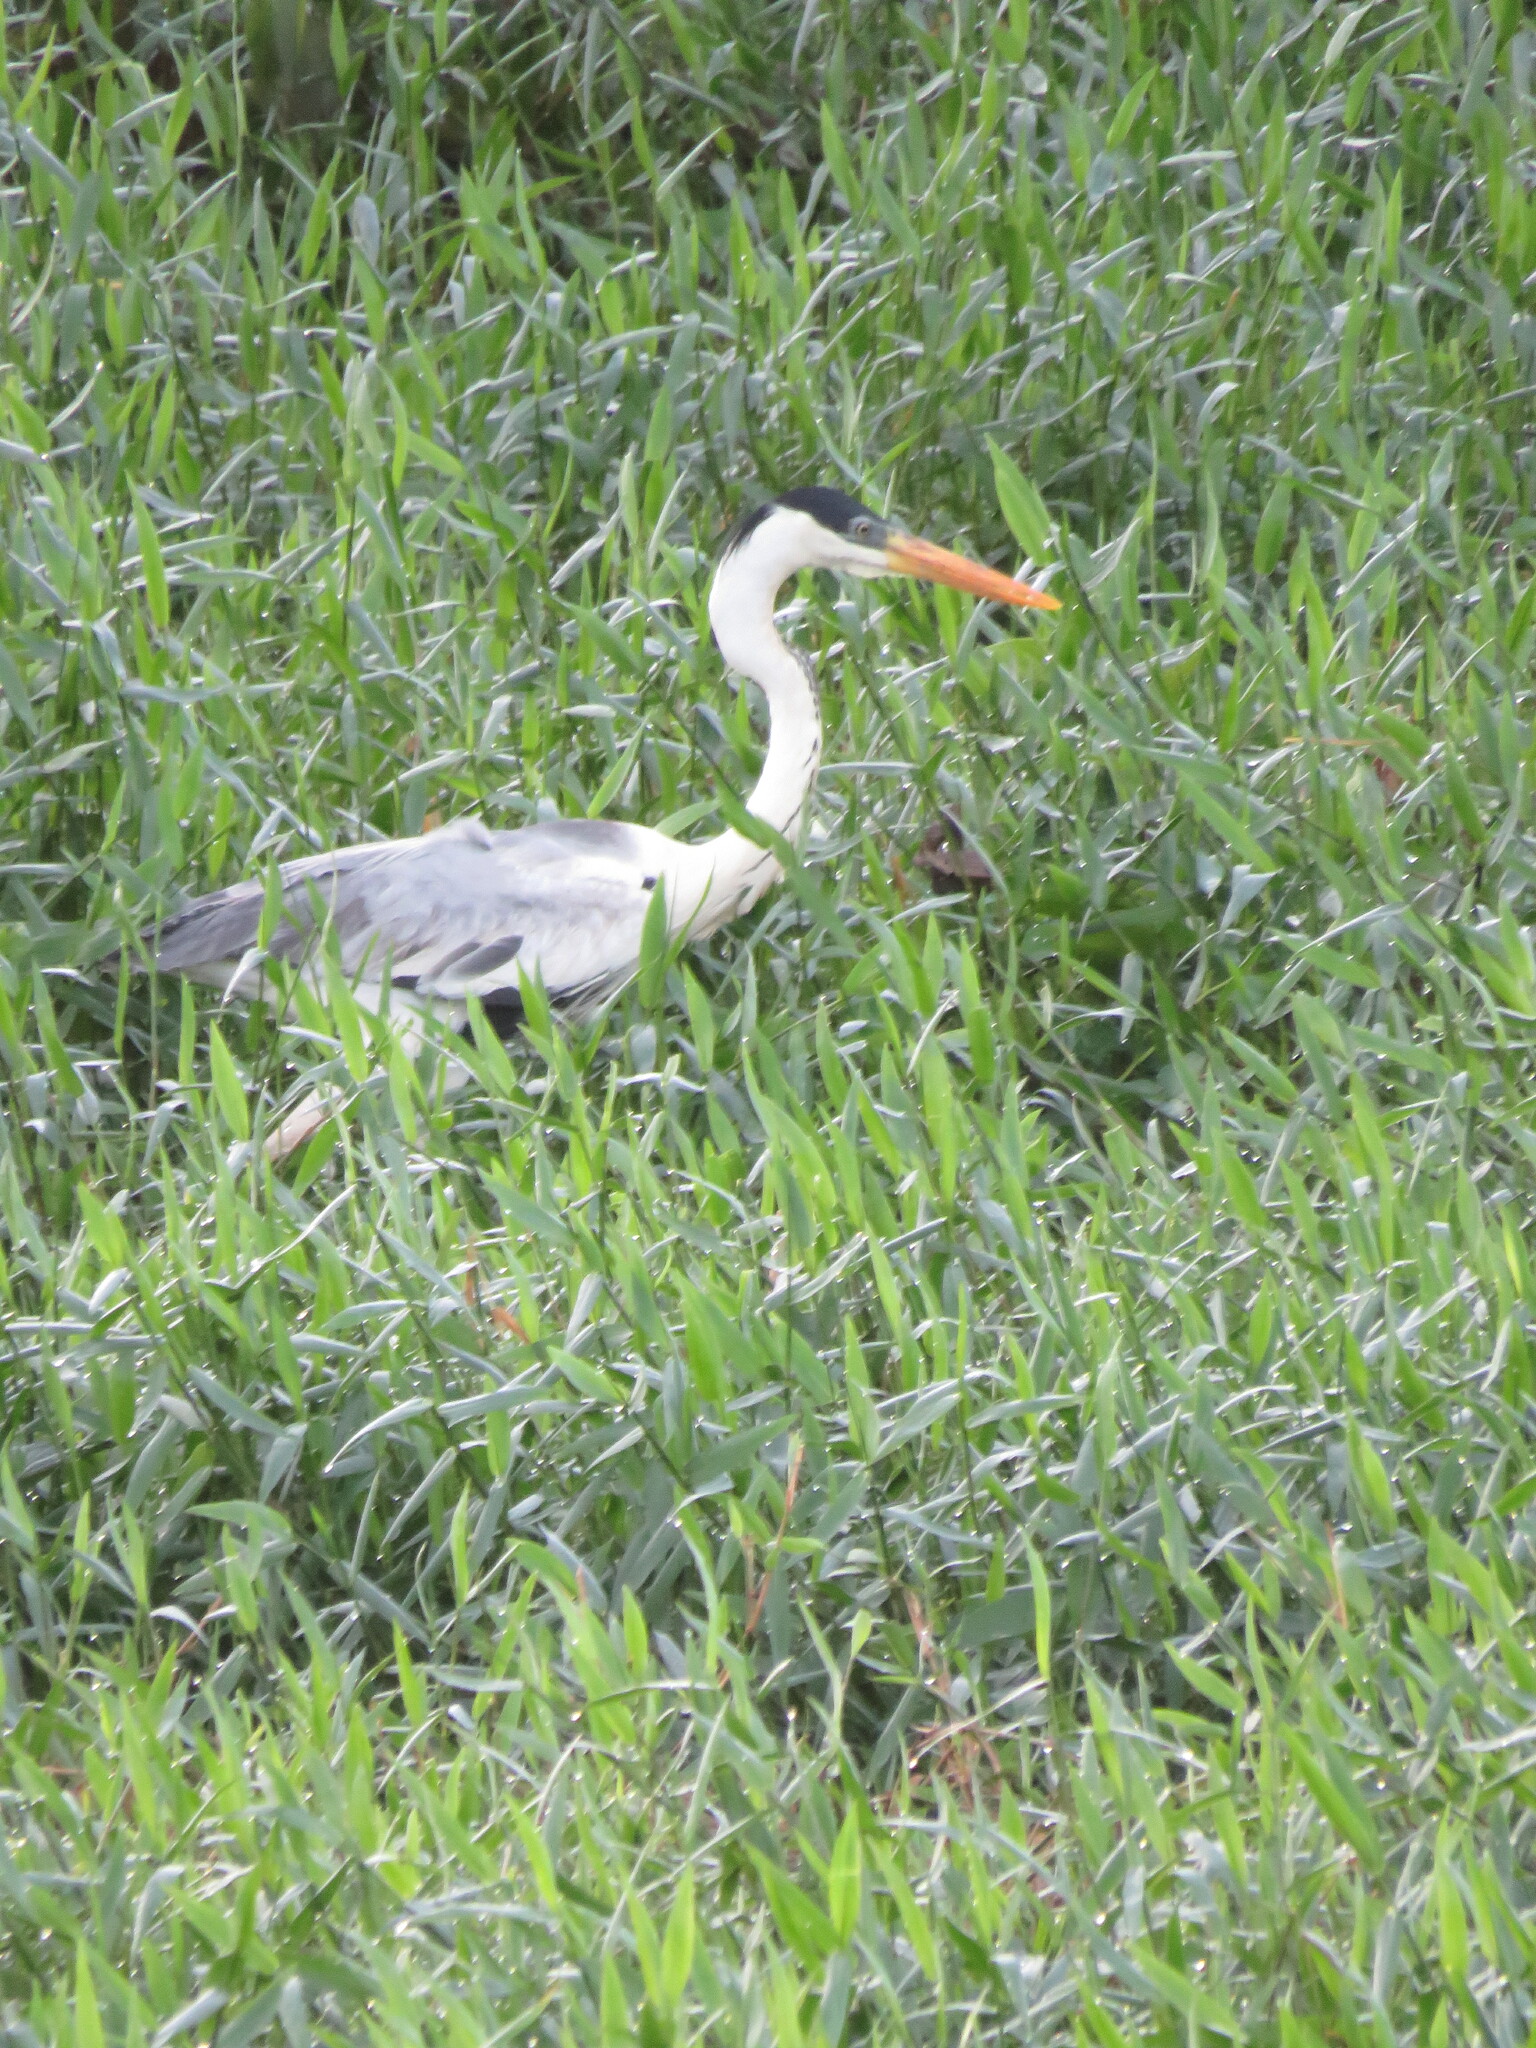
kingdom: Animalia
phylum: Chordata
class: Aves
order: Pelecaniformes
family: Ardeidae
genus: Ardea
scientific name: Ardea cocoi
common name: Cocoi heron
